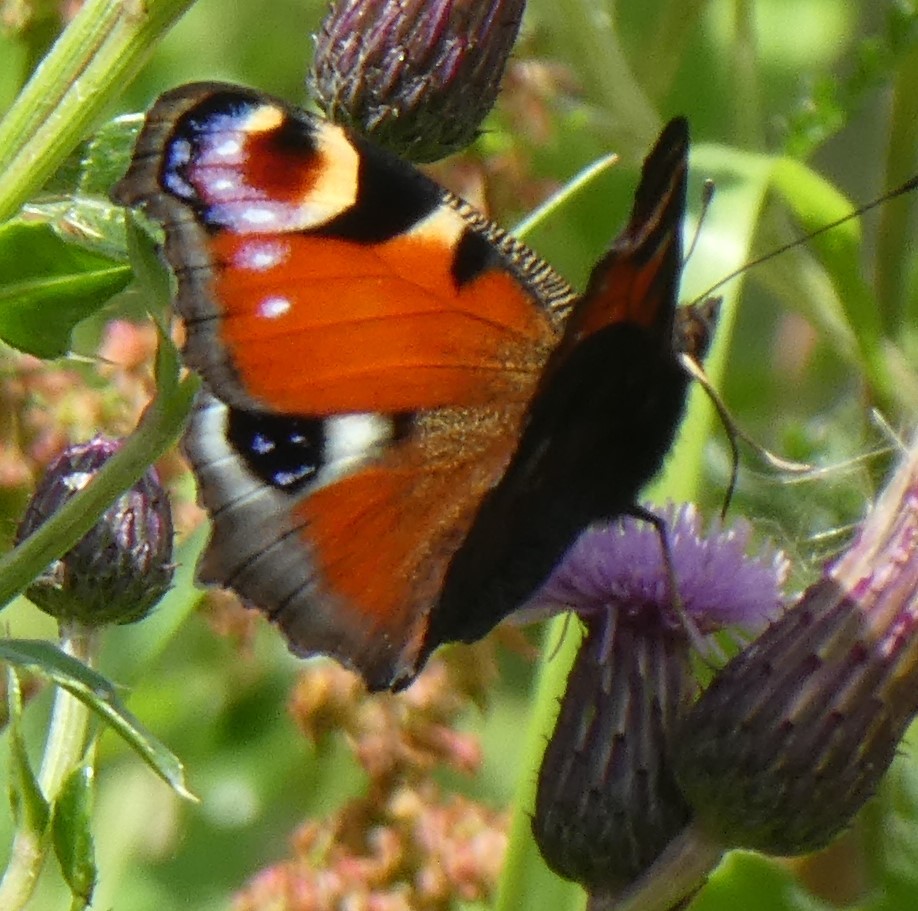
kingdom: Animalia
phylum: Arthropoda
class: Insecta
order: Lepidoptera
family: Nymphalidae
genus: Aglais
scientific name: Aglais io
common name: Peacock
